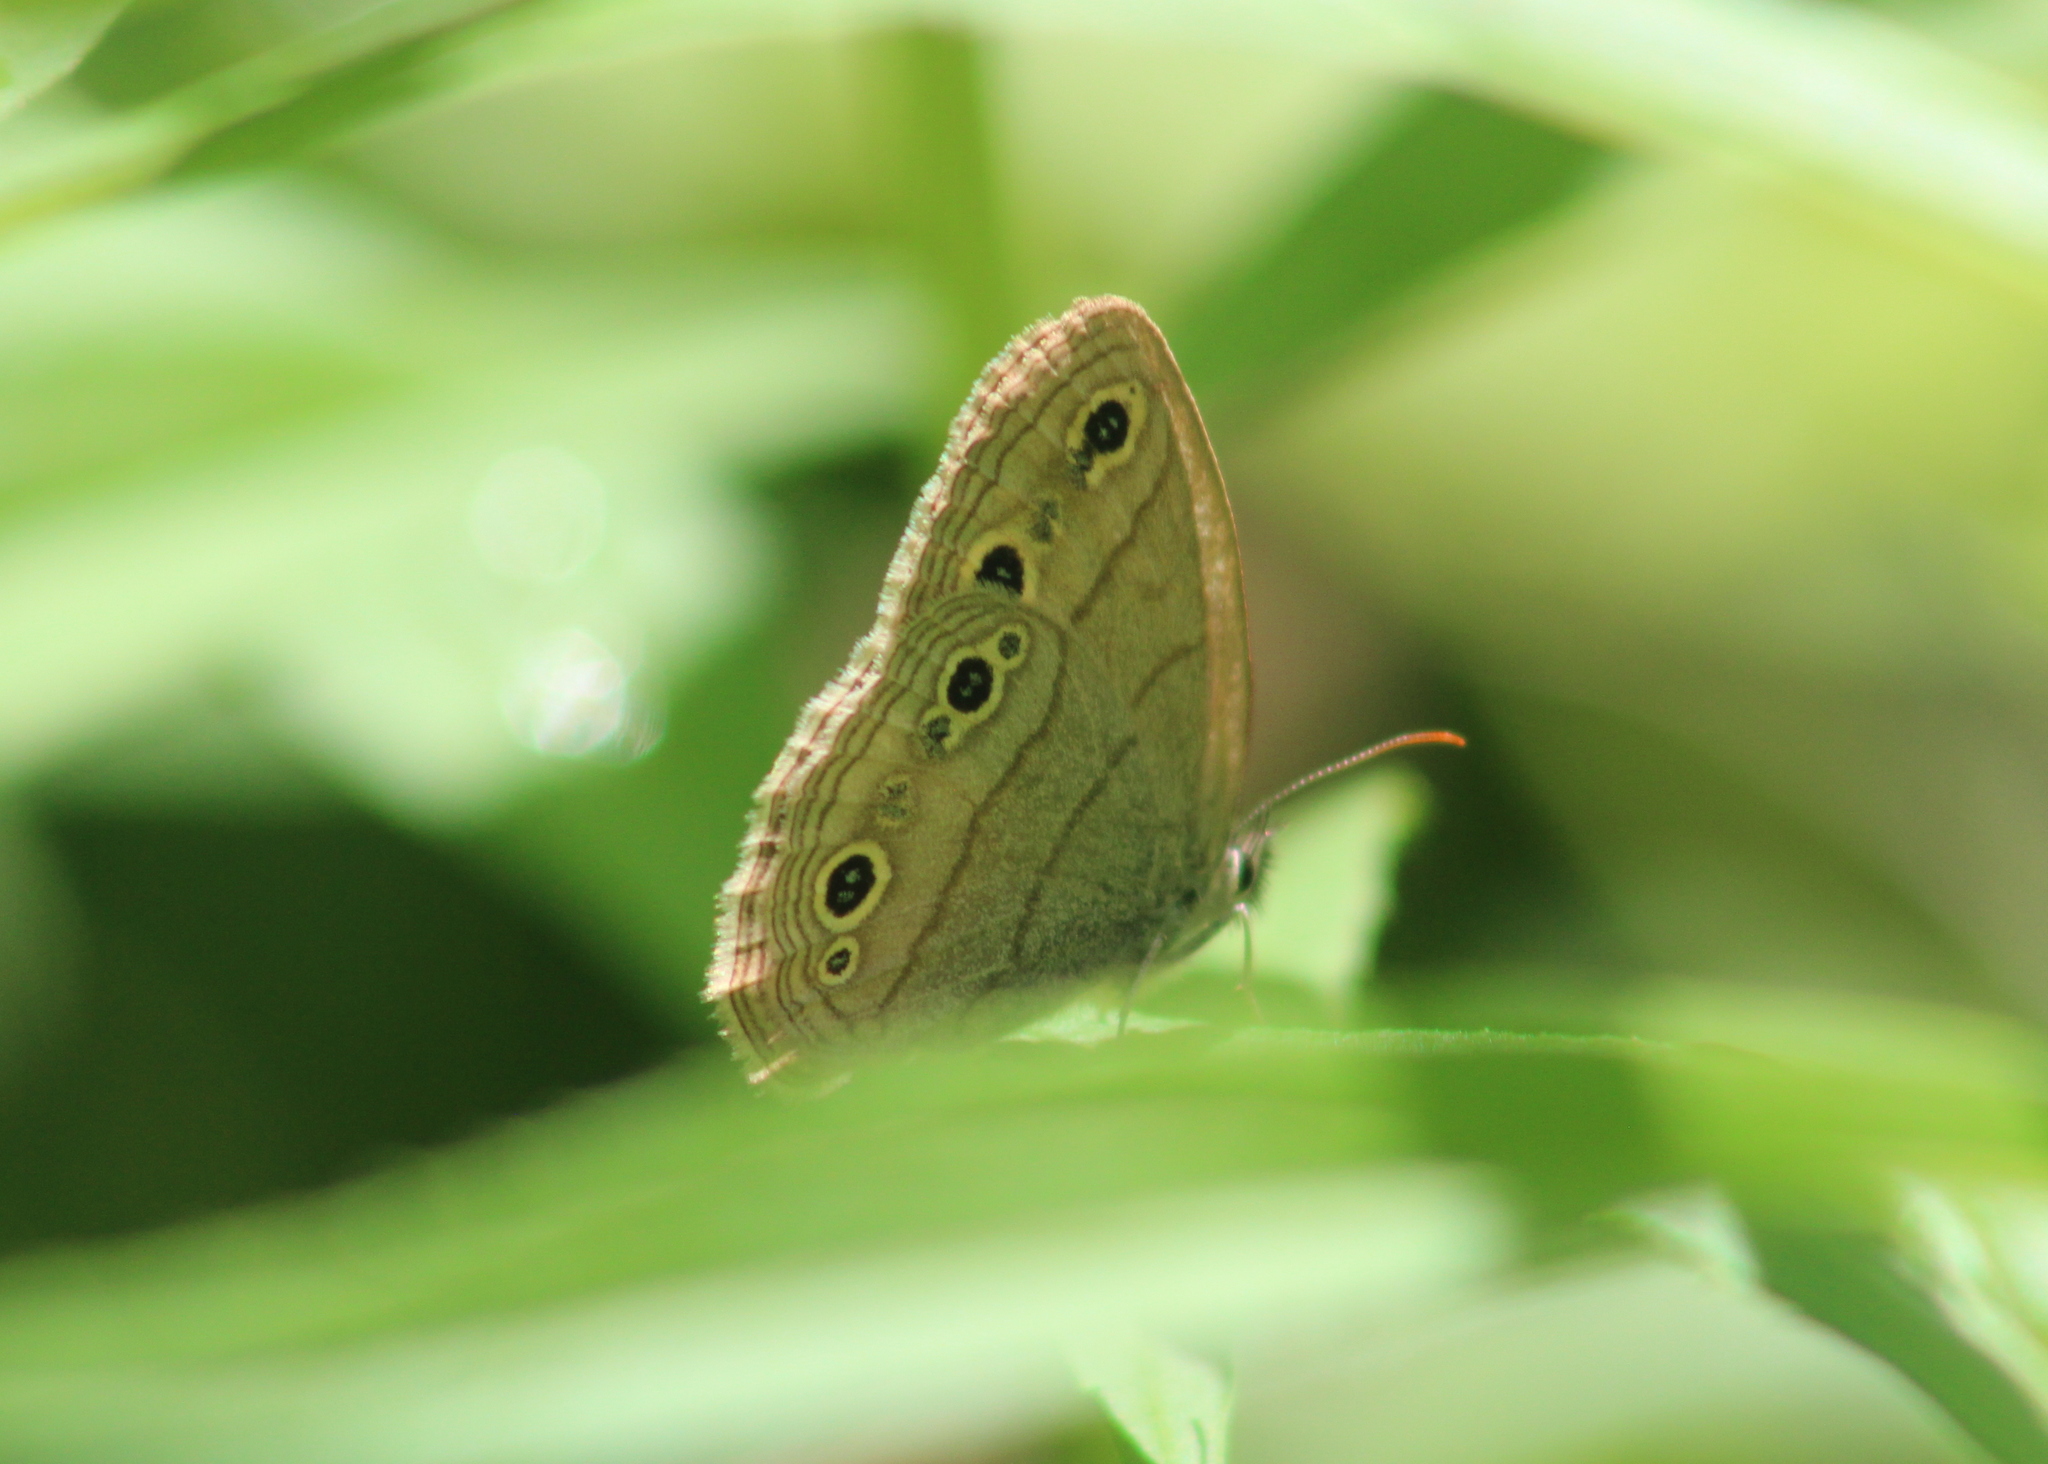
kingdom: Animalia
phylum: Arthropoda
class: Insecta
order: Lepidoptera
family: Nymphalidae
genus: Euptychia
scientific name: Euptychia cymela
